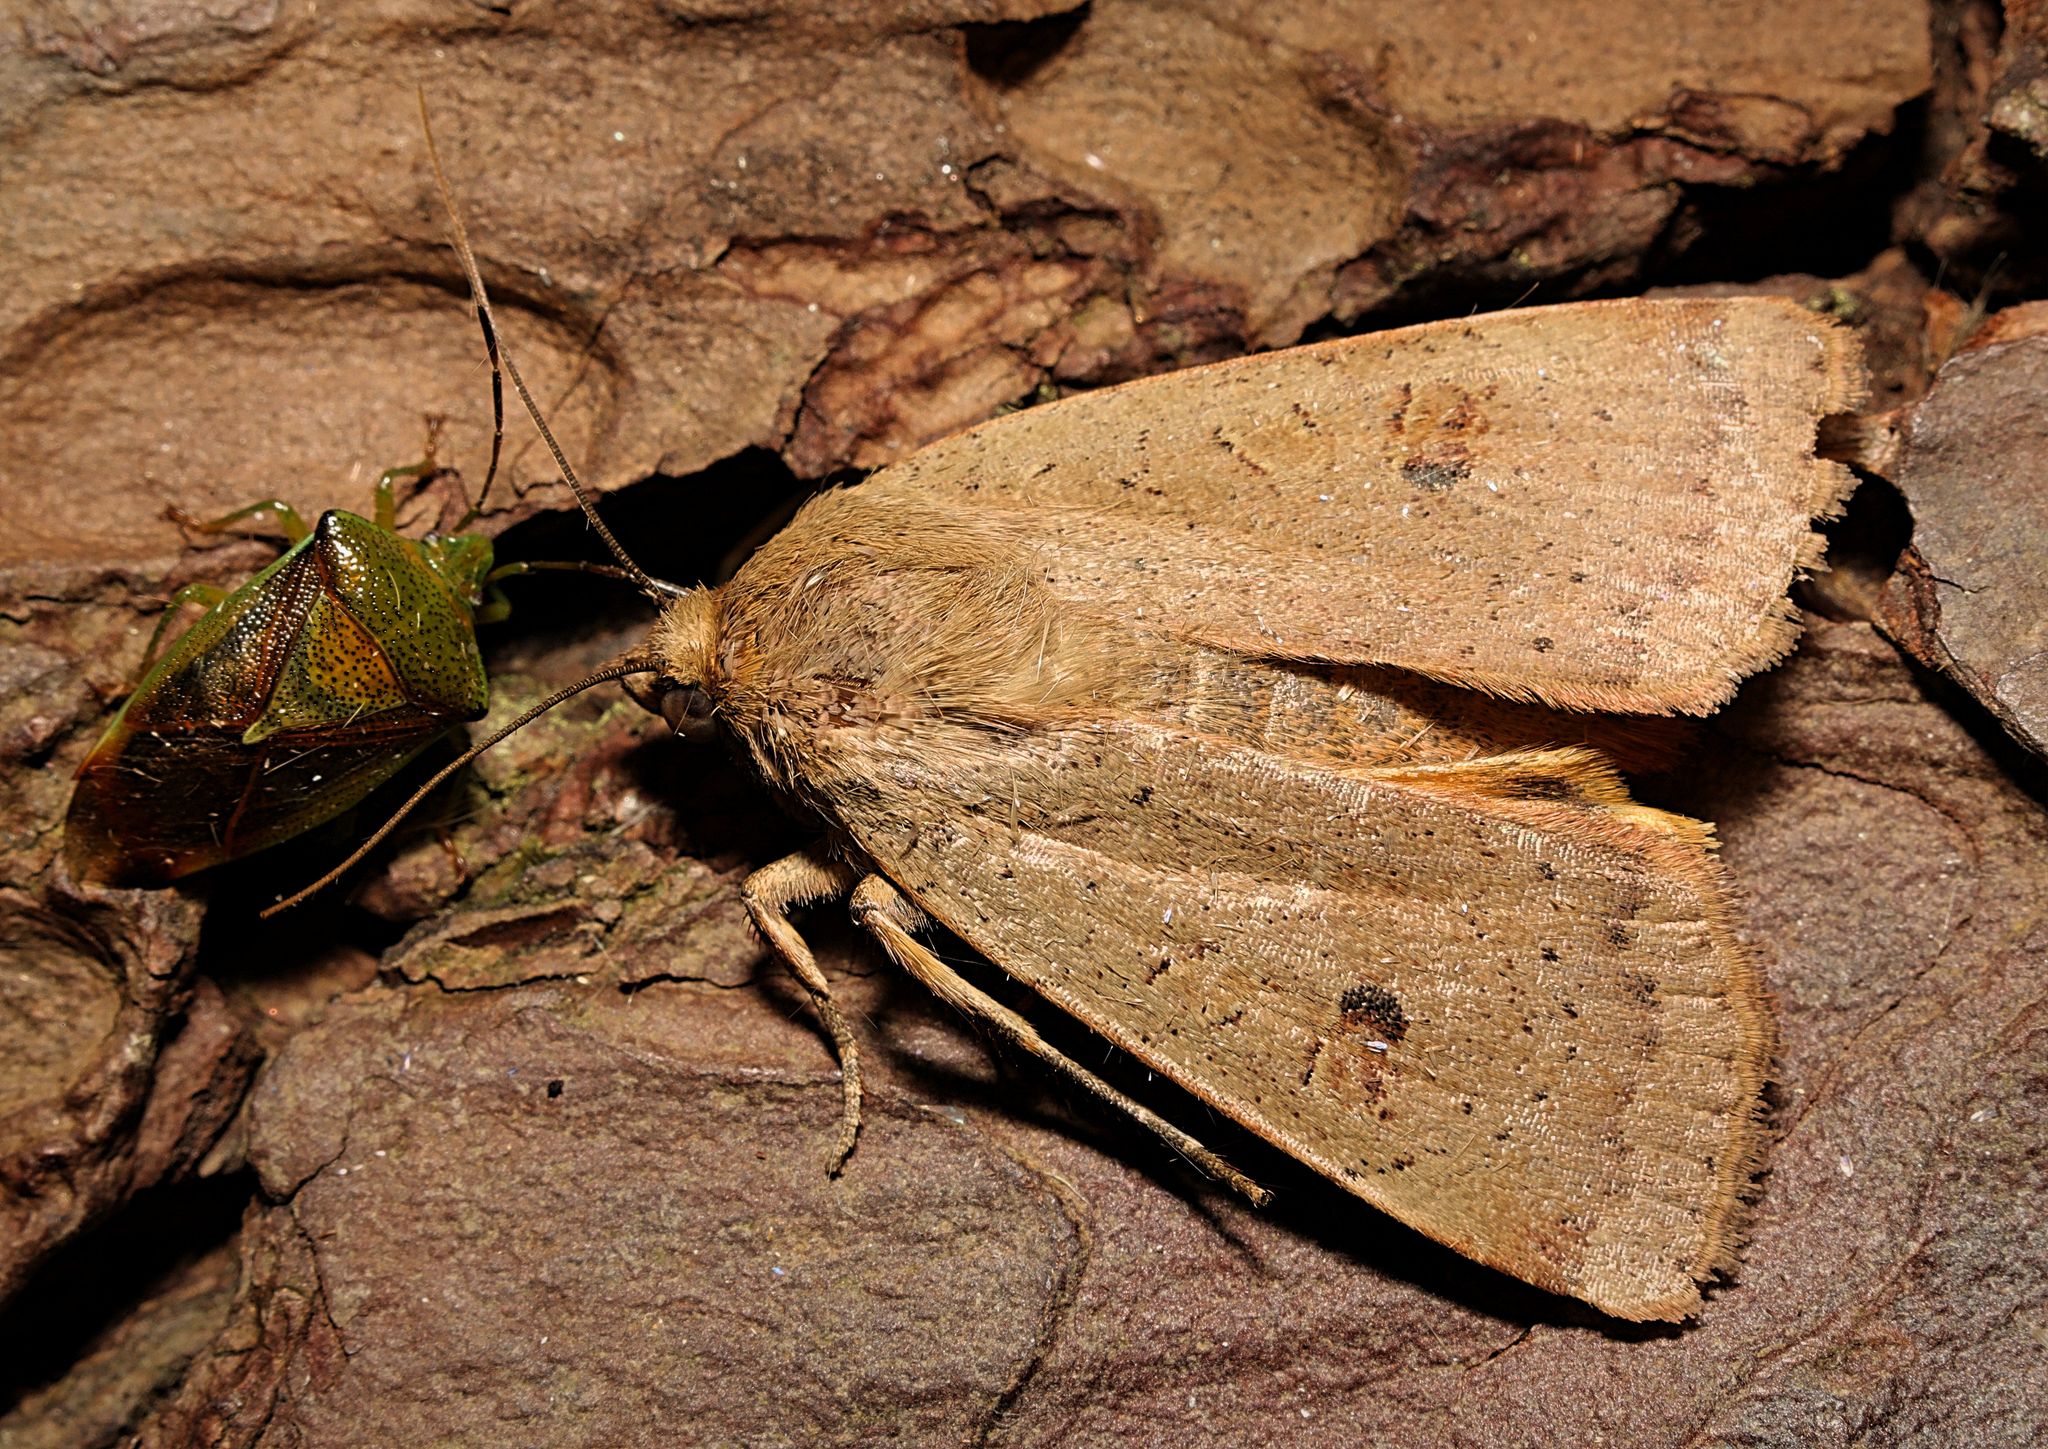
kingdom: Animalia
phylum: Arthropoda
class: Insecta
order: Lepidoptera
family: Noctuidae
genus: Noctua
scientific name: Noctua comes
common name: Lesser yellow underwing
